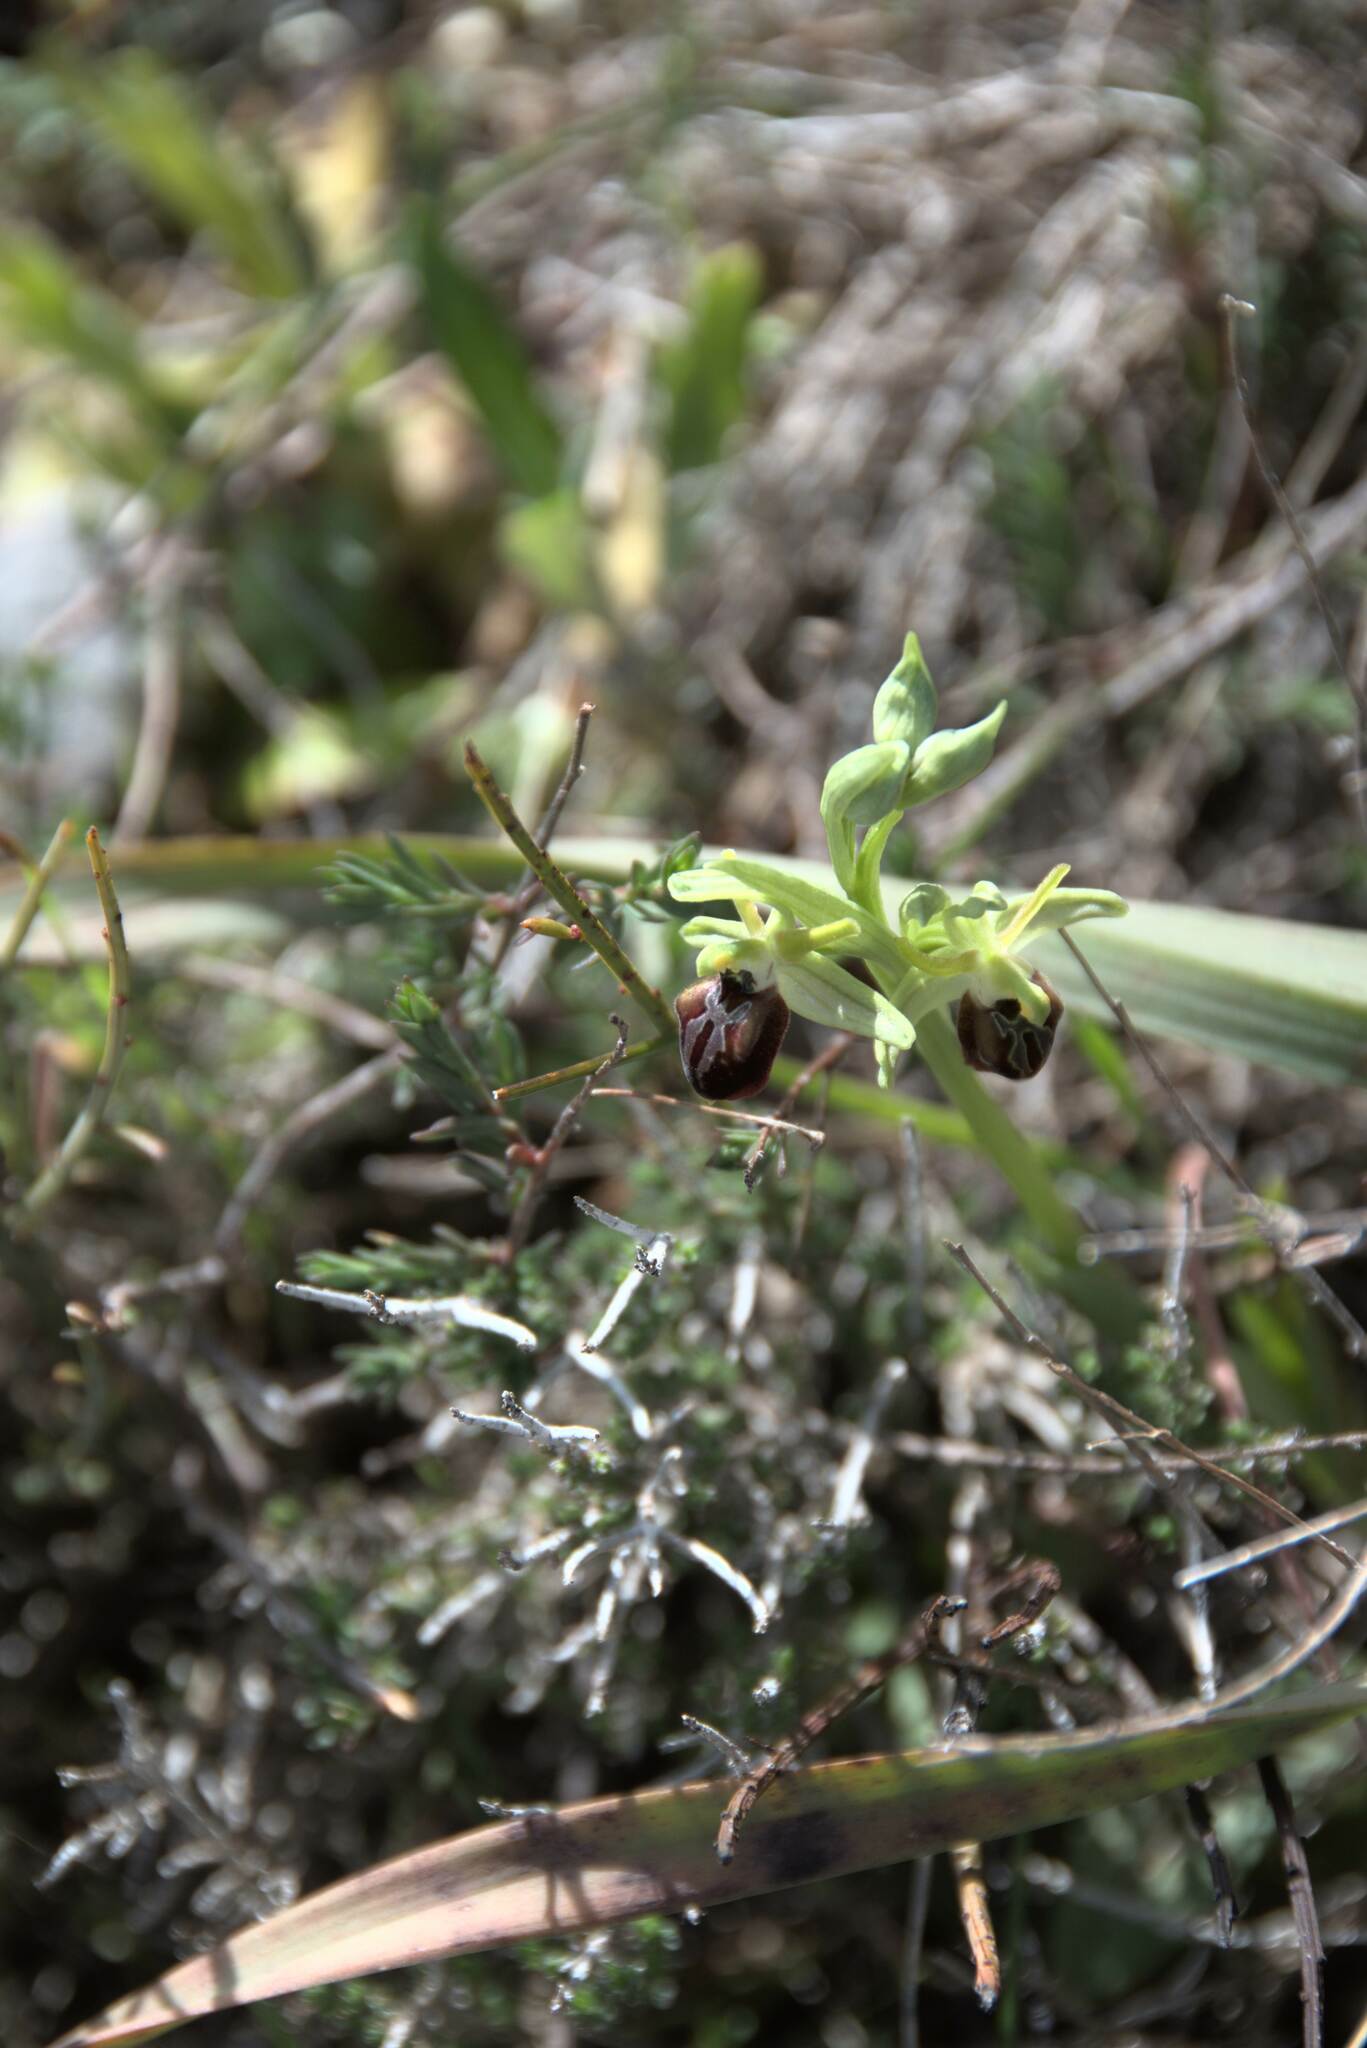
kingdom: Plantae
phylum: Tracheophyta
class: Liliopsida
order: Asparagales
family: Orchidaceae
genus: Ophrys
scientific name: Ophrys sphegodes
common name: Early spider-orchid
